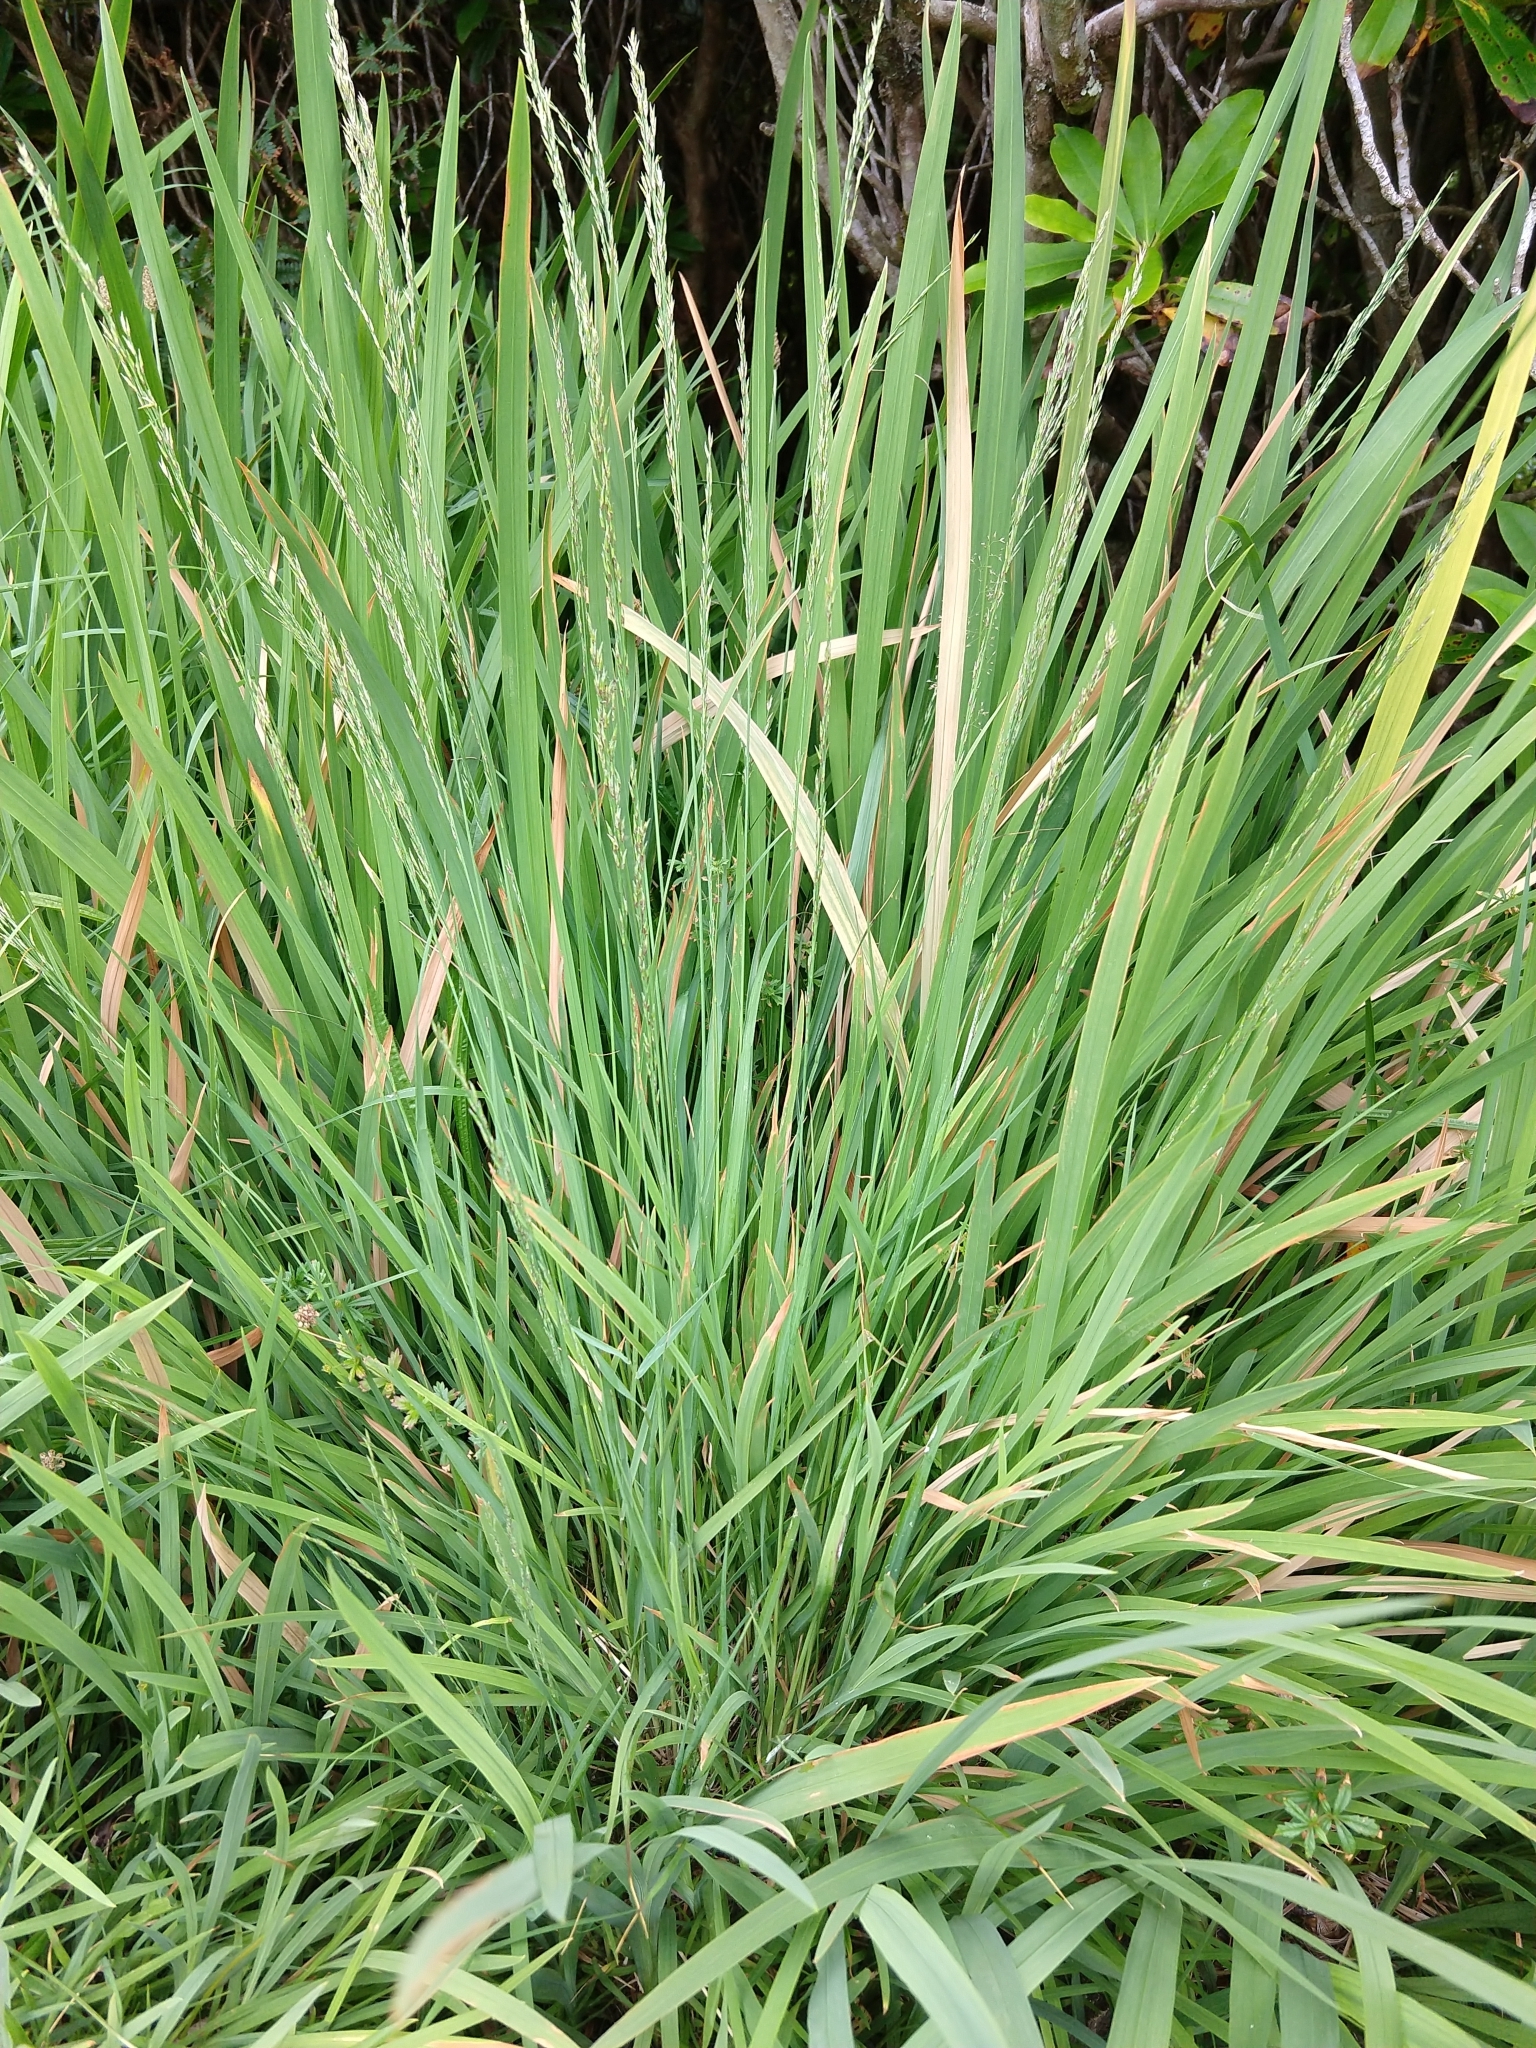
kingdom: Plantae
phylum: Tracheophyta
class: Liliopsida
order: Poales
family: Poaceae
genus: Molinia
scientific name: Molinia caerulea
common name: Purple moor-grass
